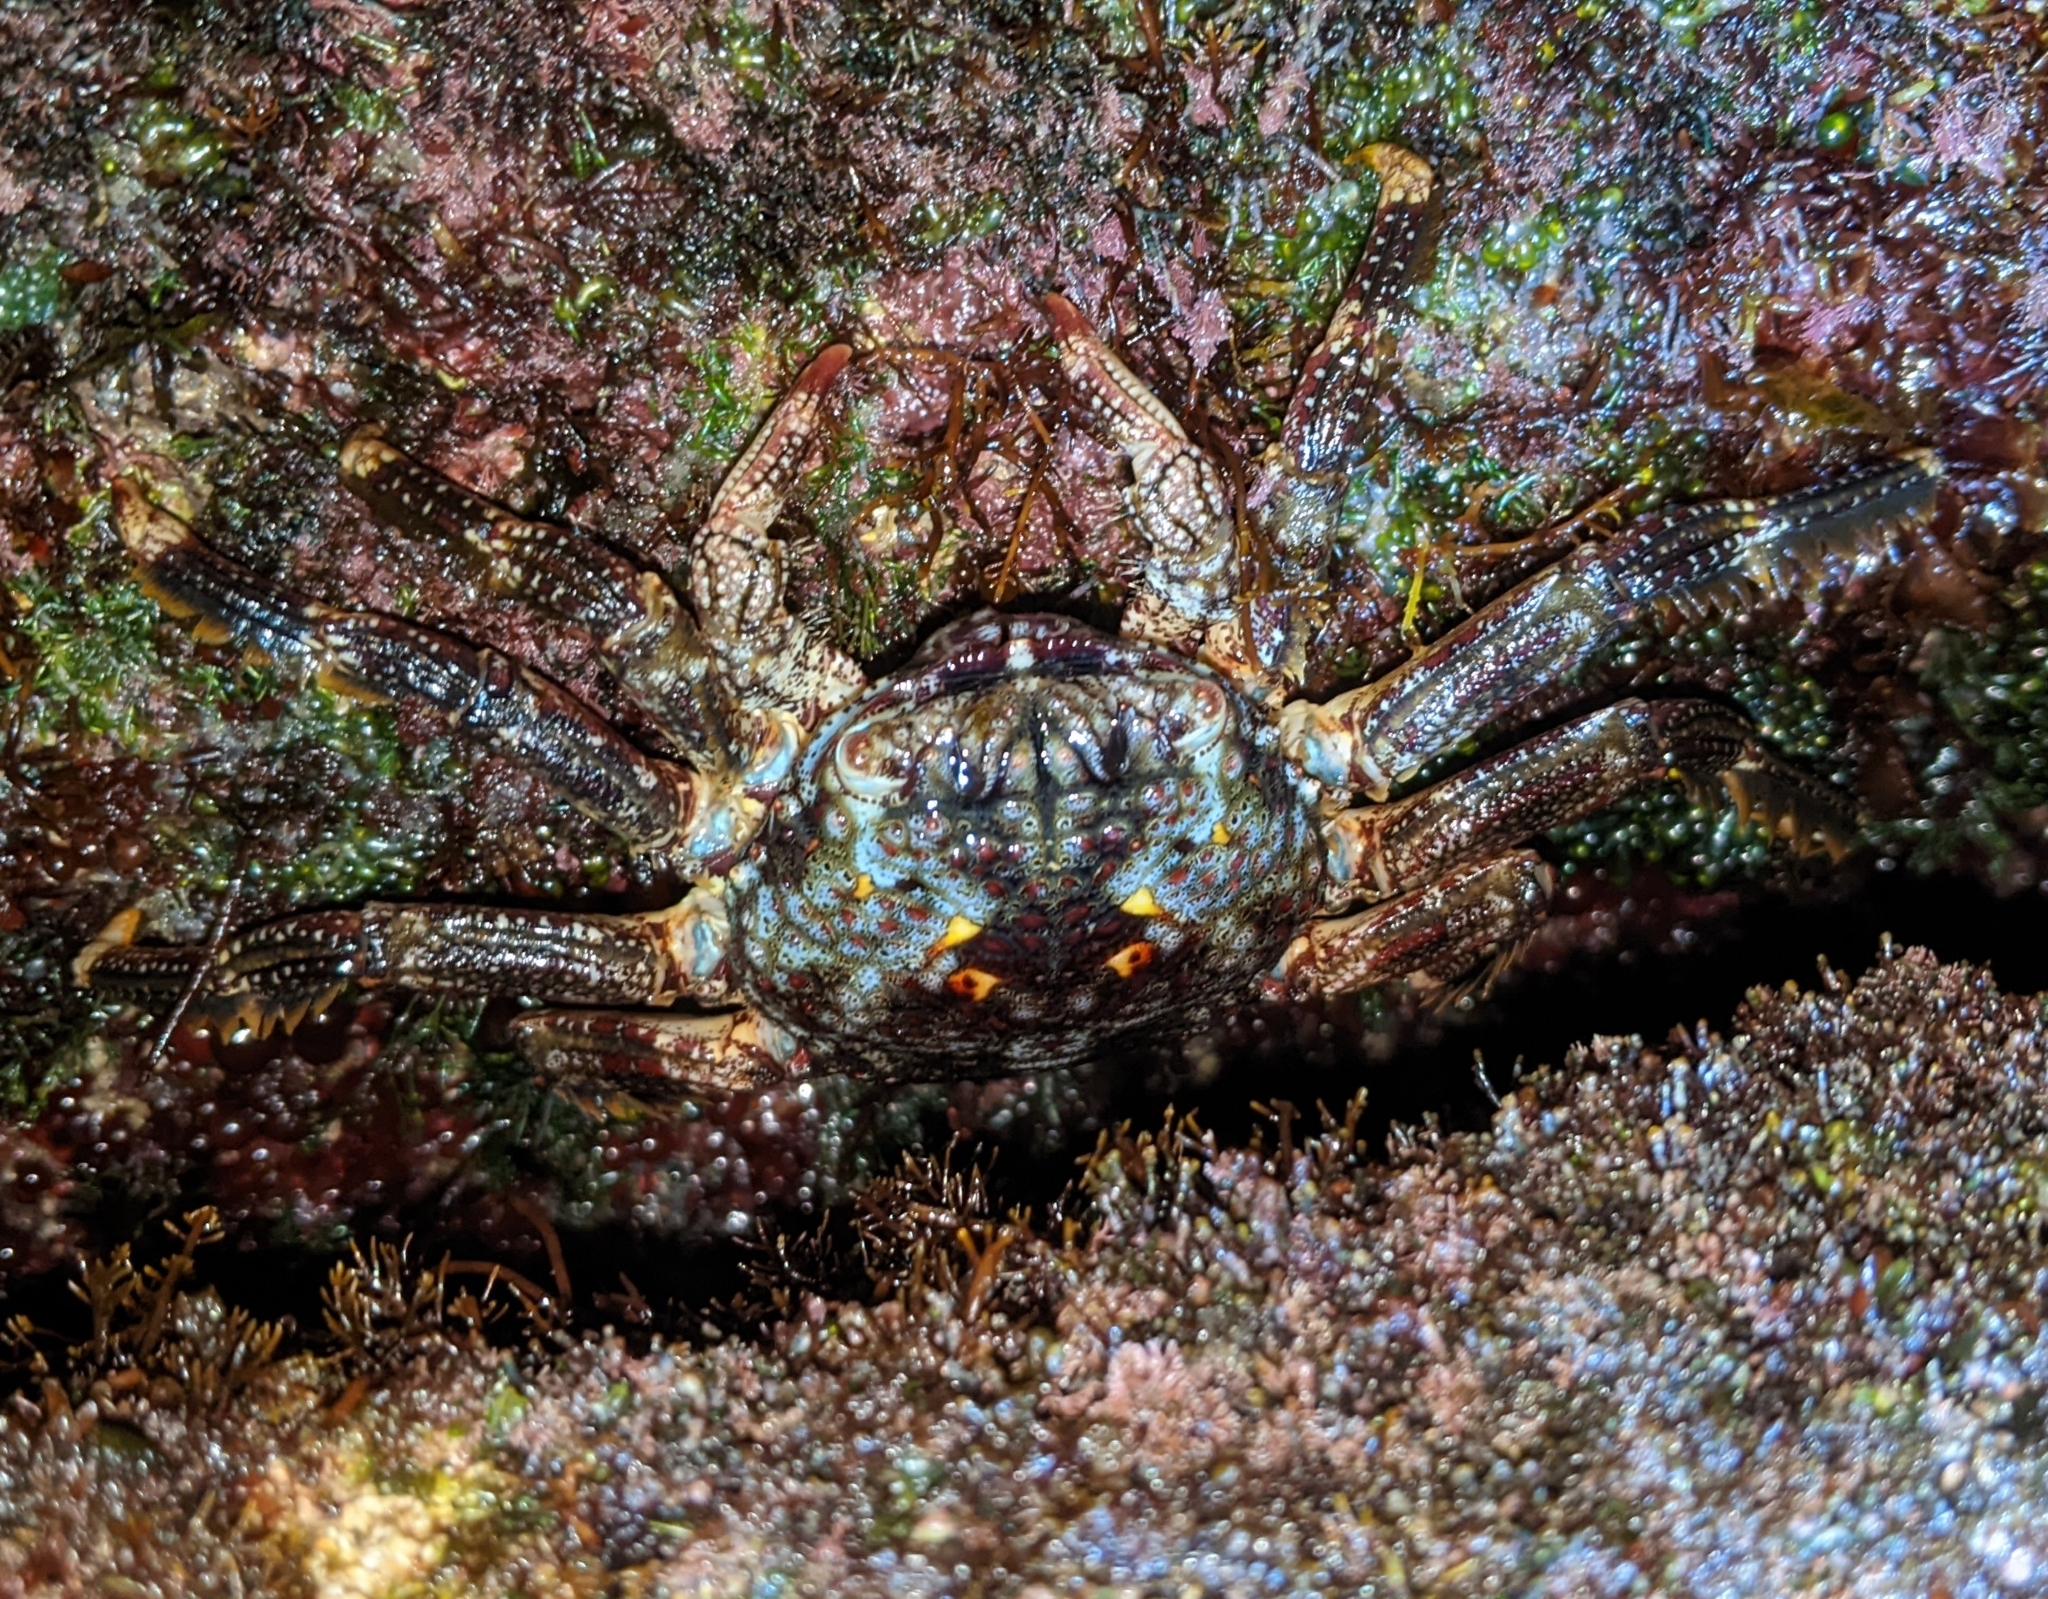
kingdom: Animalia
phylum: Arthropoda
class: Malacostraca
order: Decapoda
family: Plagusiidae
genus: Plagusia
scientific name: Plagusia squamosa
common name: Scaly rock crab
